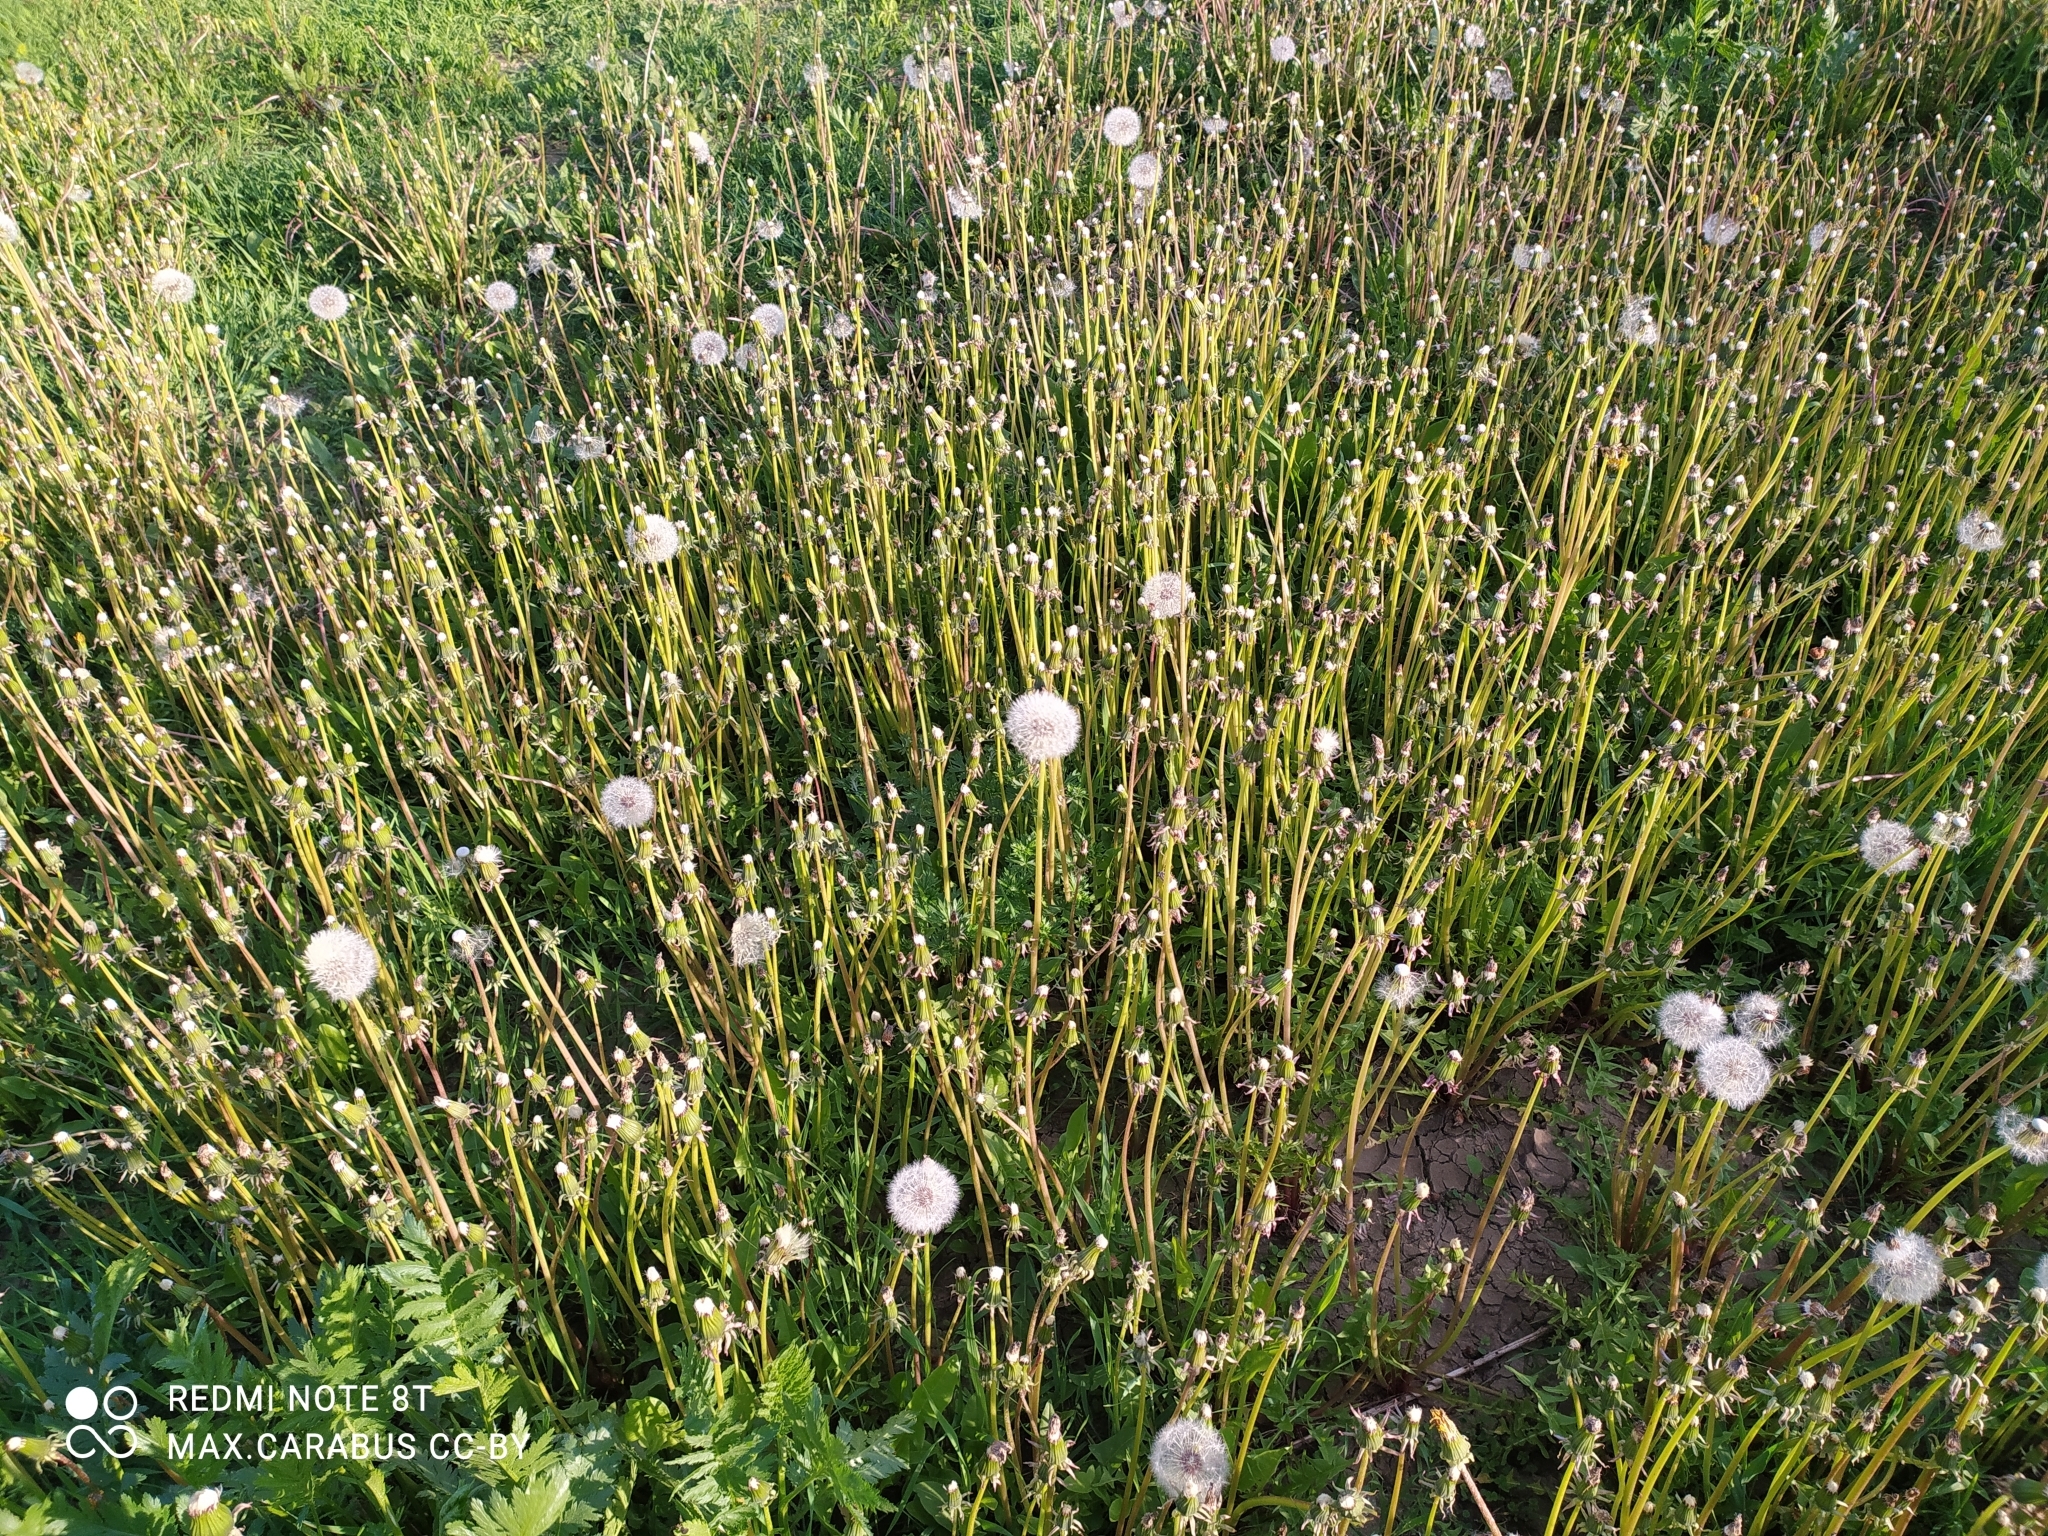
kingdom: Plantae
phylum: Tracheophyta
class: Magnoliopsida
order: Asterales
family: Asteraceae
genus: Taraxacum
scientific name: Taraxacum officinale
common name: Common dandelion
